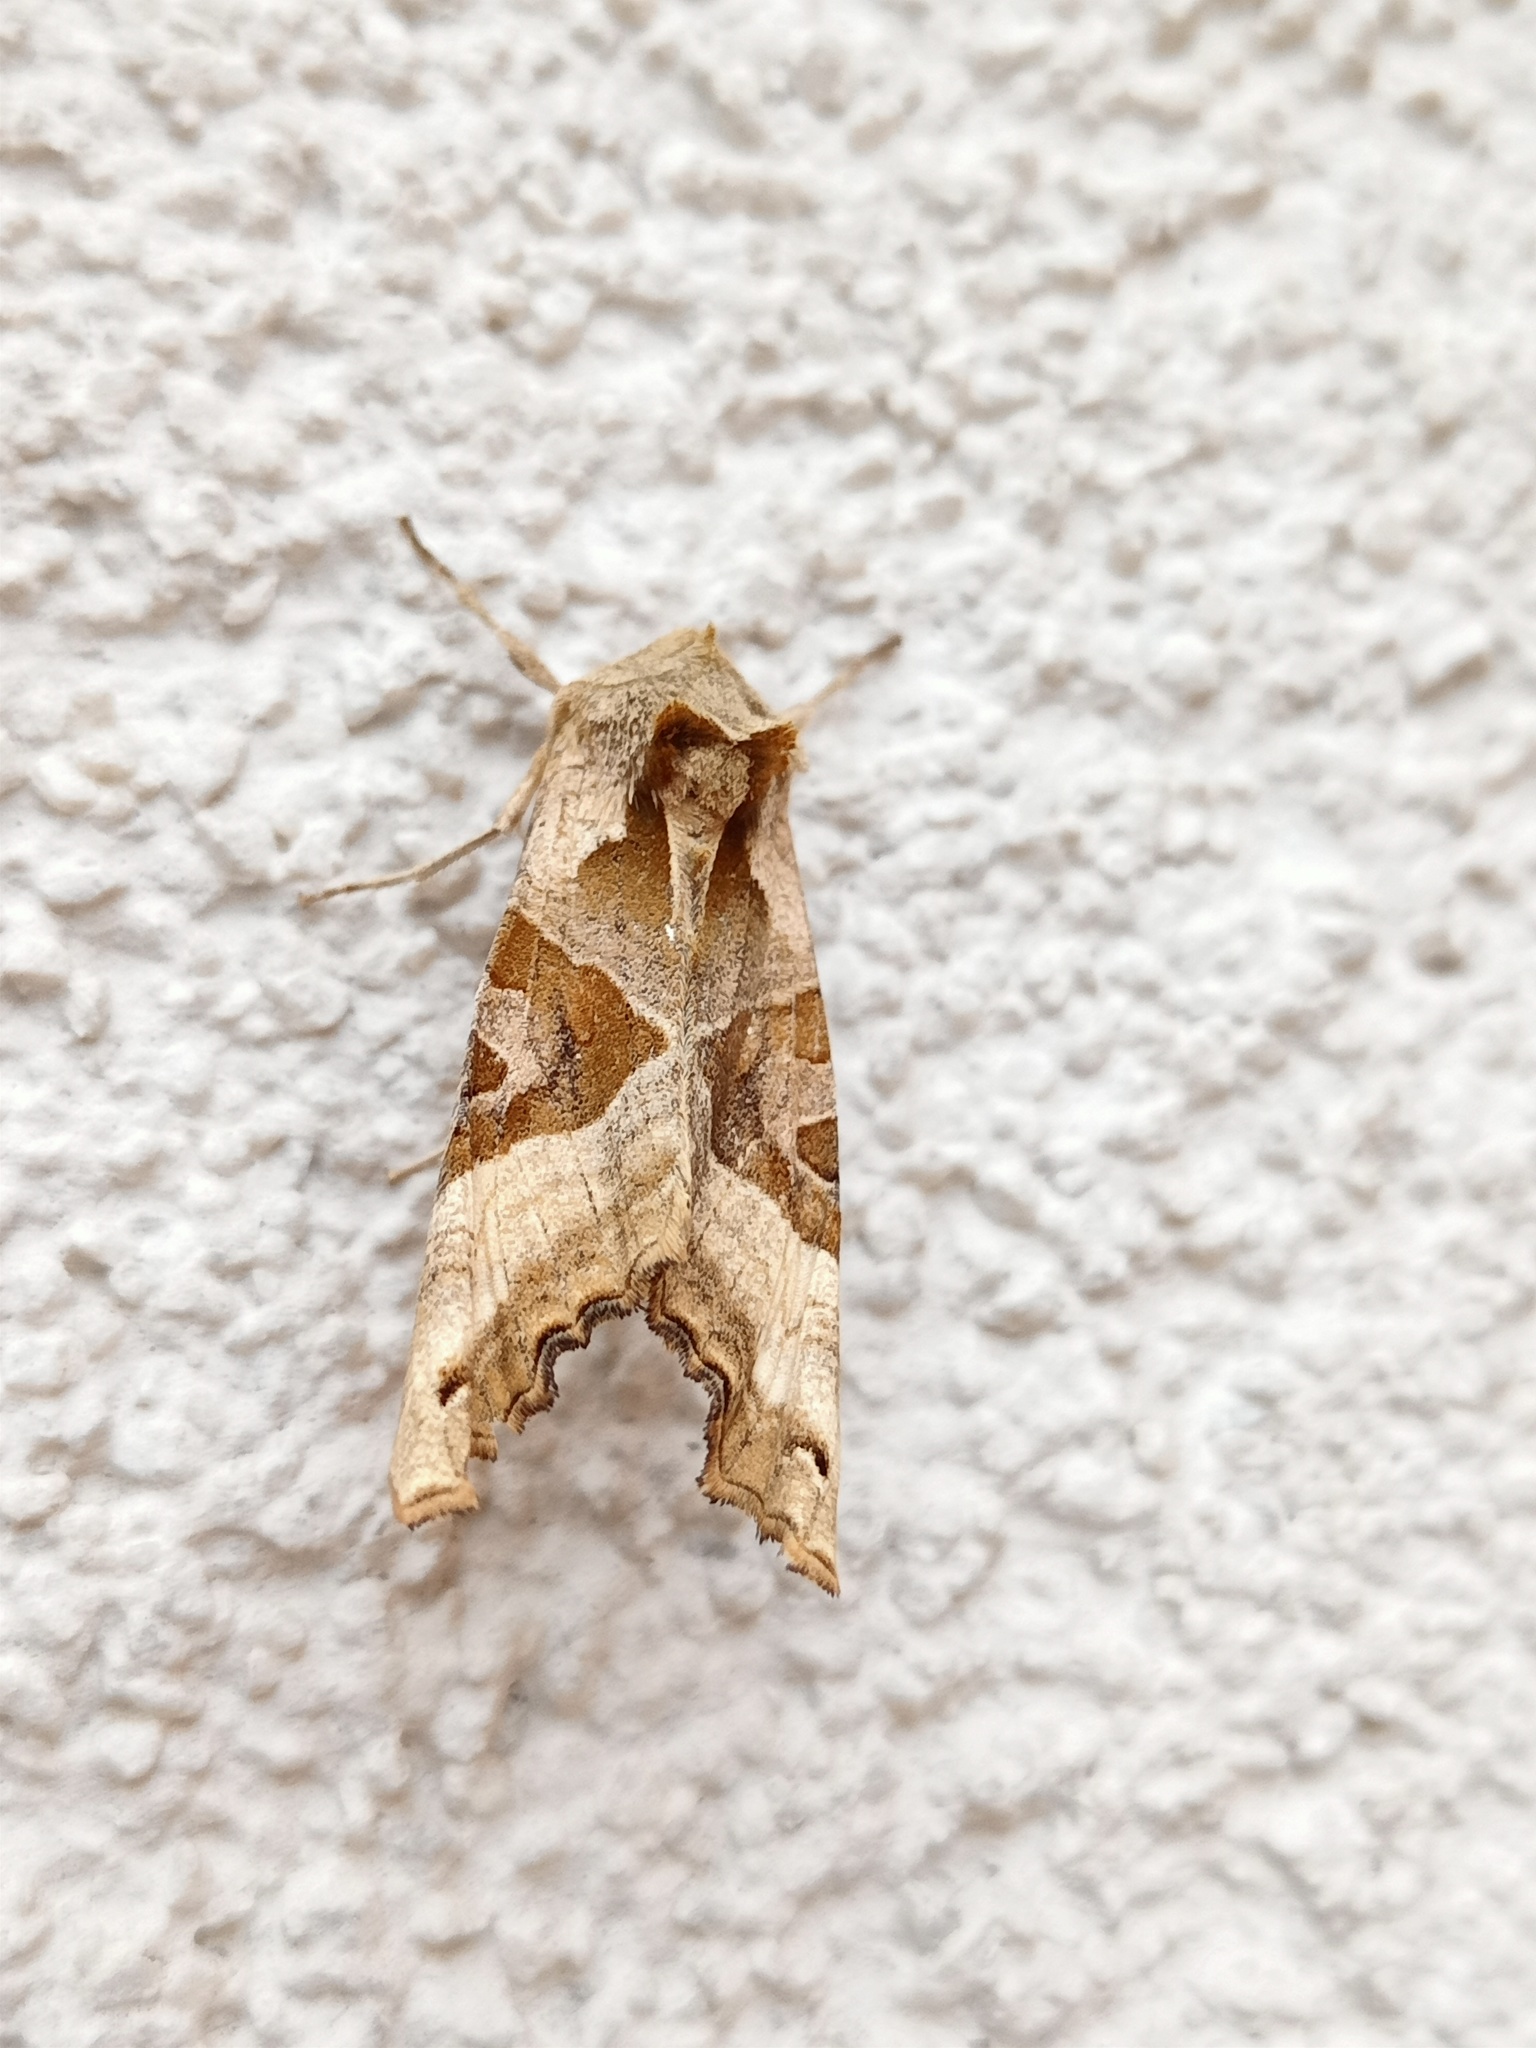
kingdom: Animalia
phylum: Arthropoda
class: Insecta
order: Lepidoptera
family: Noctuidae
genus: Phlogophora
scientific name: Phlogophora meticulosa
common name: Angle shades
